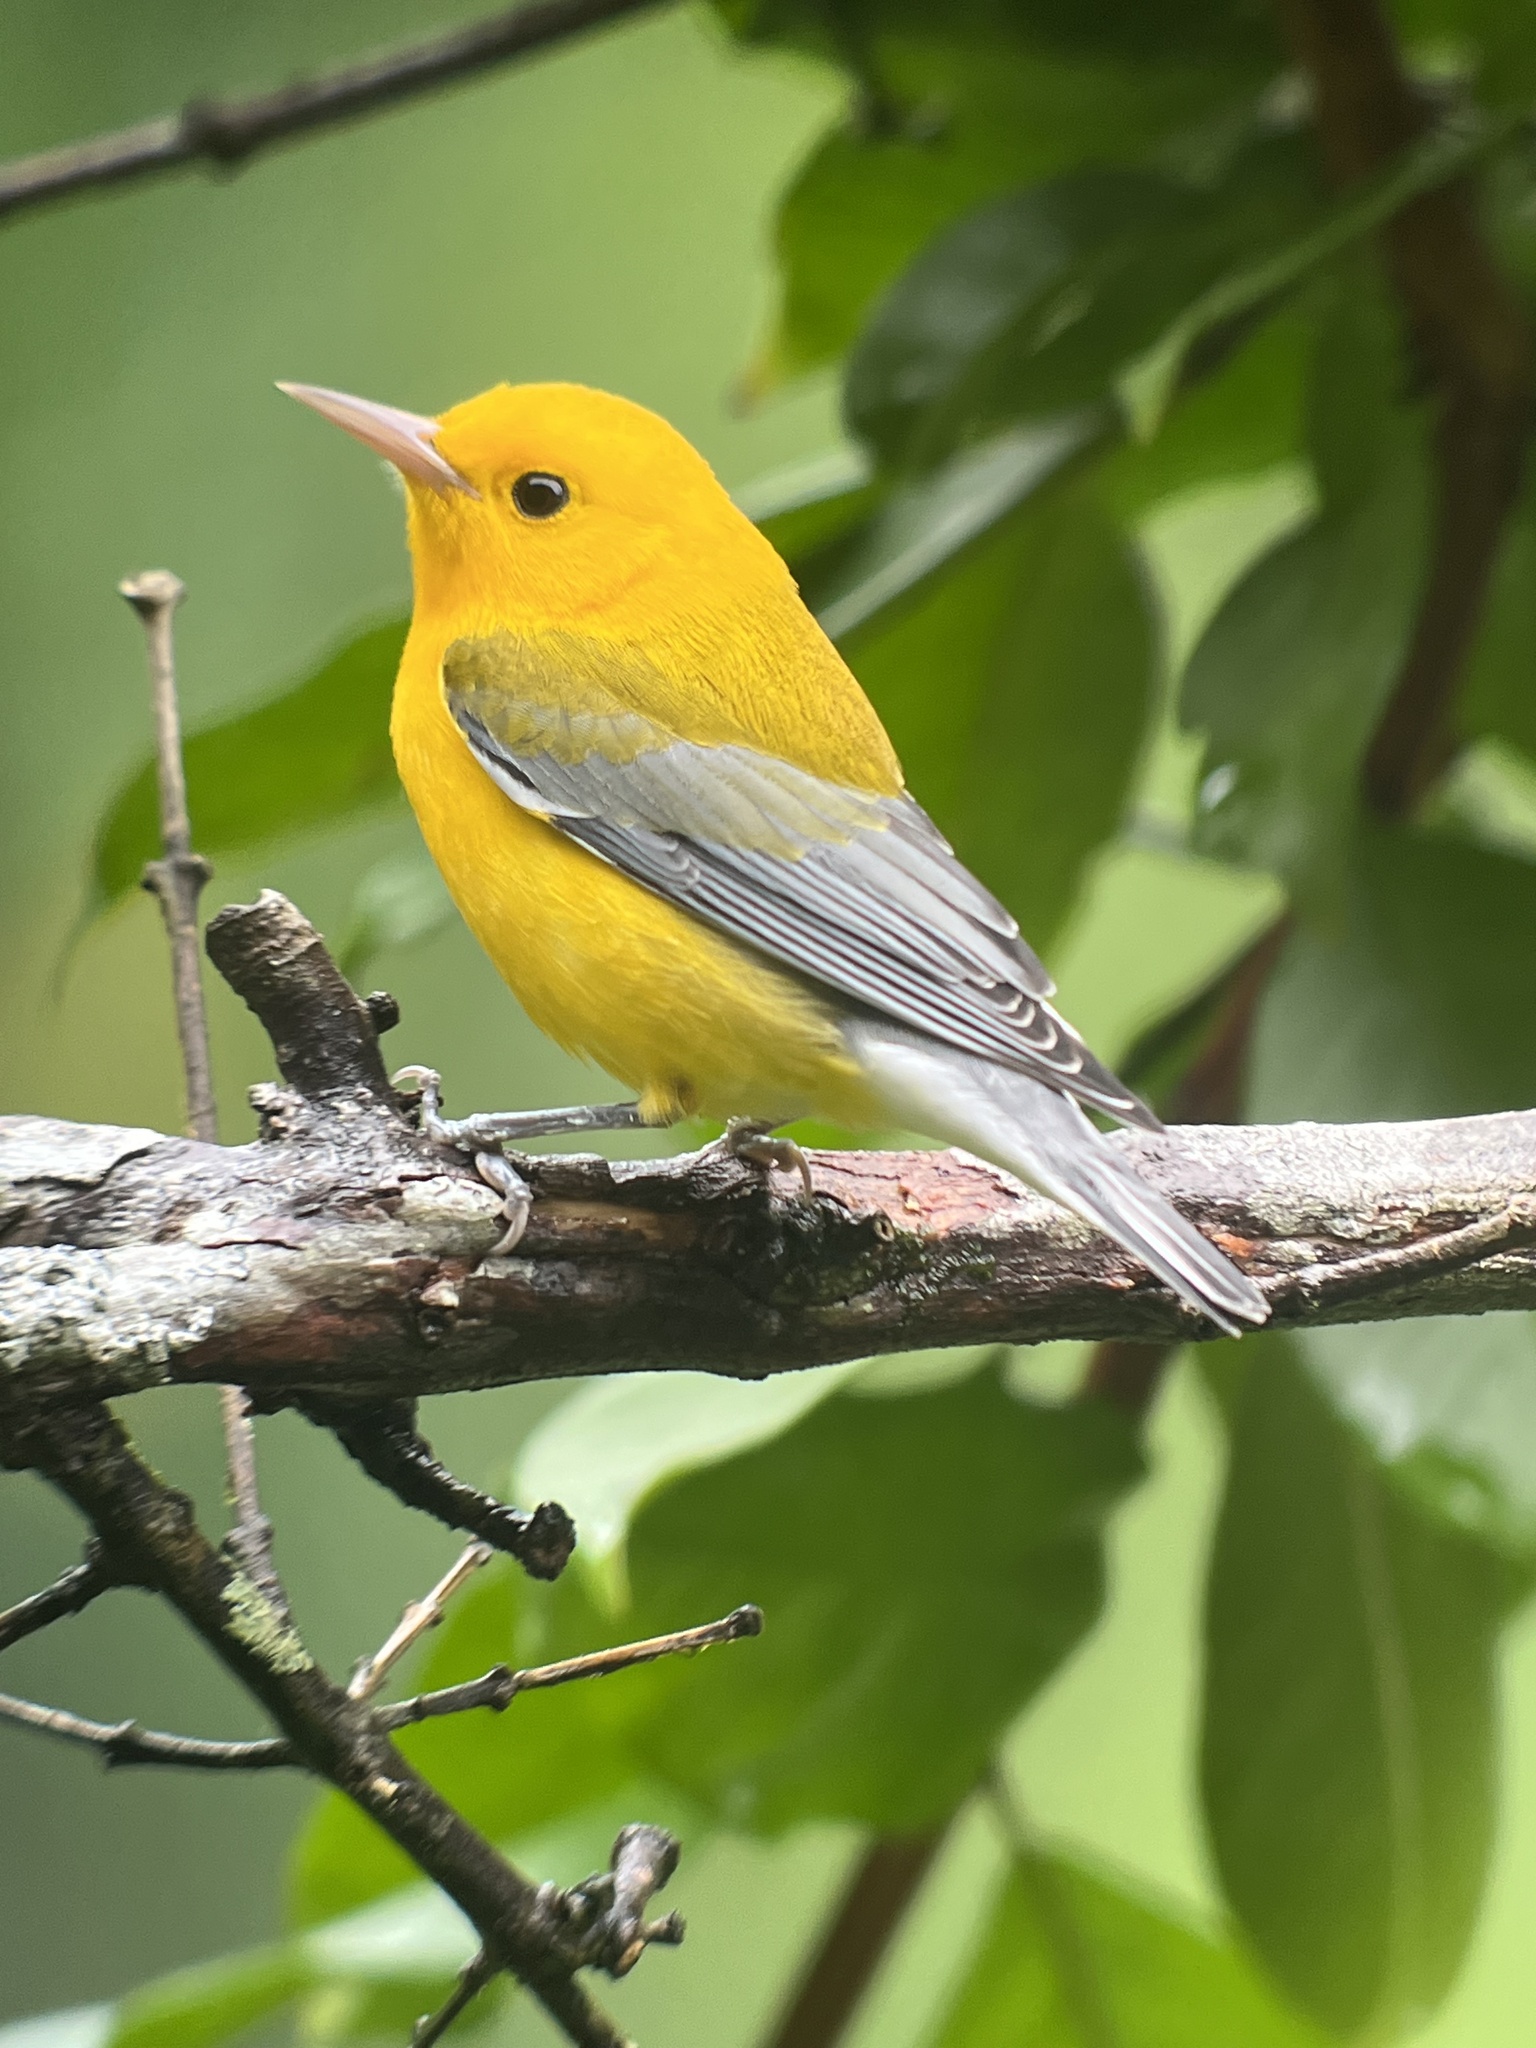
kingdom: Animalia
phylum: Chordata
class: Aves
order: Passeriformes
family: Parulidae
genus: Protonotaria
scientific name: Protonotaria citrea
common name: Prothonotary warbler
